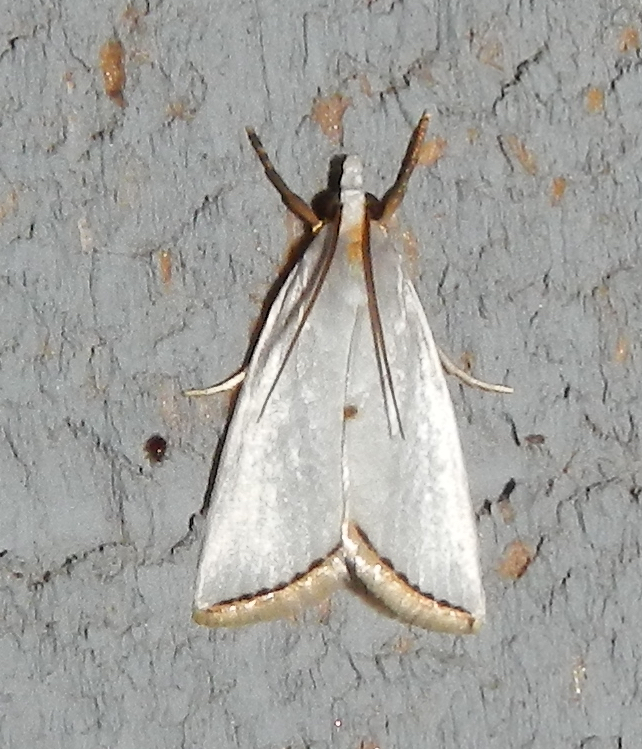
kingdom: Animalia
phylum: Arthropoda
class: Insecta
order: Lepidoptera
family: Crambidae
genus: Argyria
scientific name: Argyria nivalis
